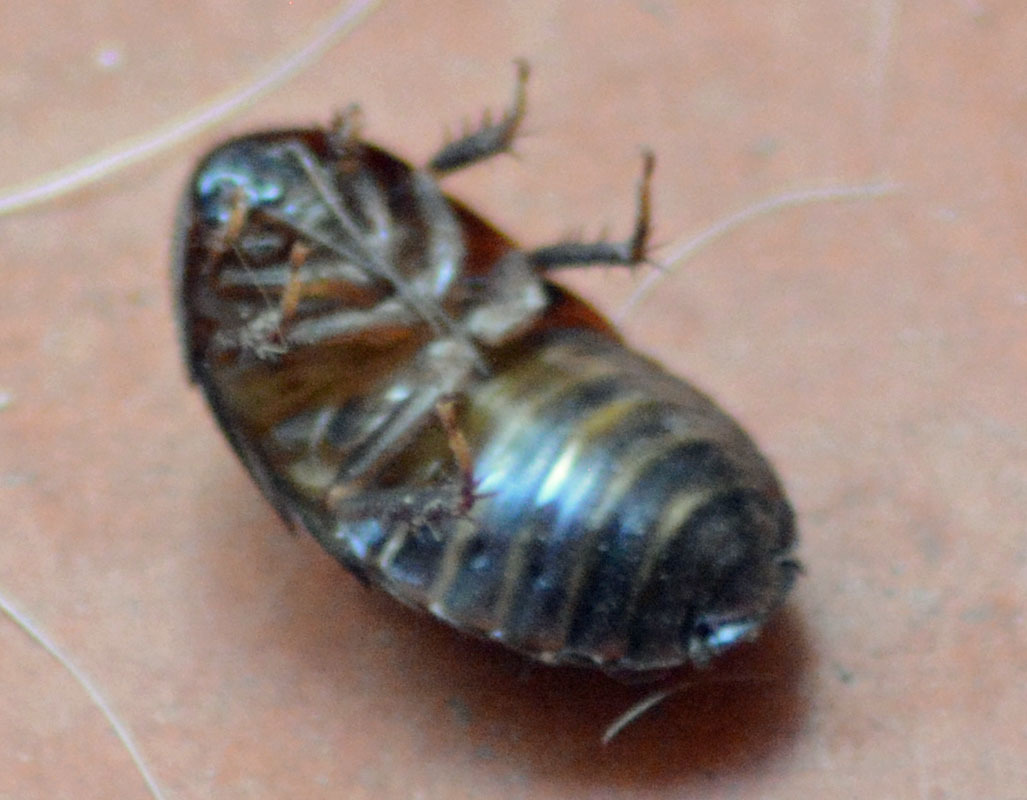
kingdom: Animalia
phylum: Arthropoda
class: Insecta
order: Blattodea
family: Corydiidae
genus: Homoeogamia
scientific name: Homoeogamia mexicana
